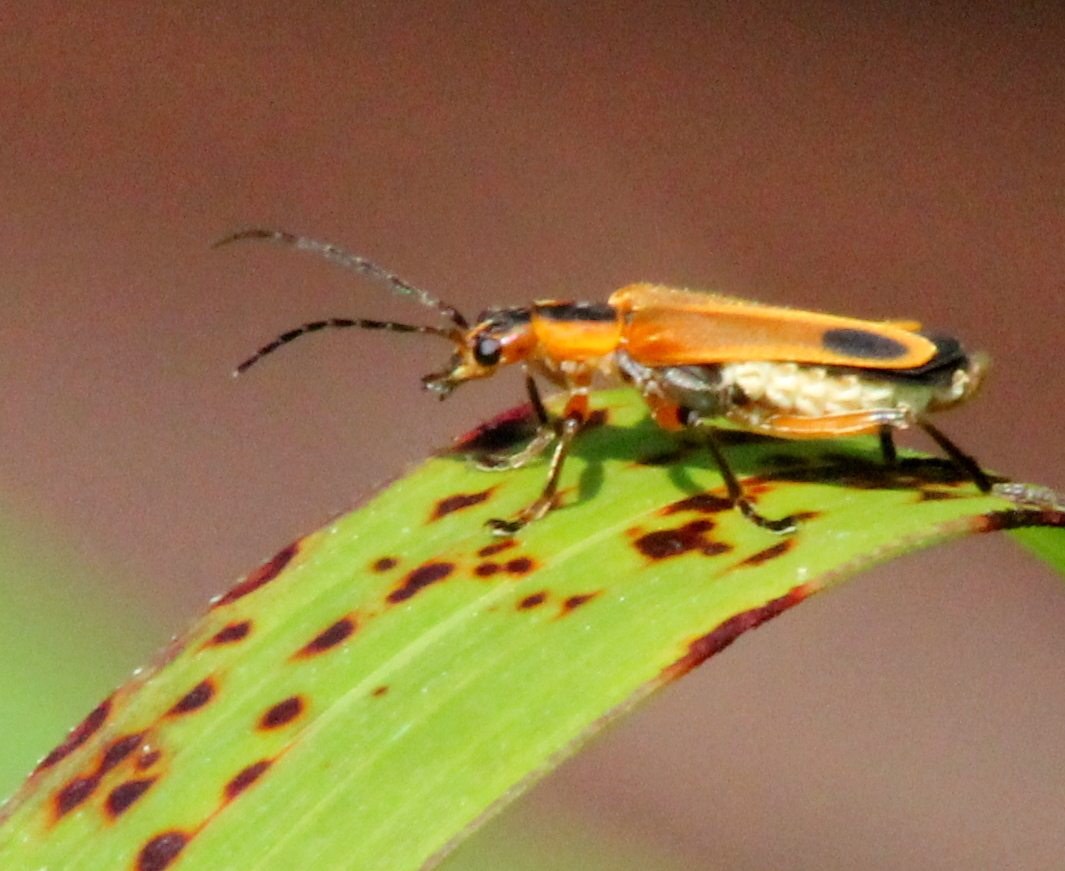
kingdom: Animalia
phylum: Arthropoda
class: Insecta
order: Coleoptera
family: Cantharidae
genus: Chauliognathus
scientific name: Chauliognathus marginatus
